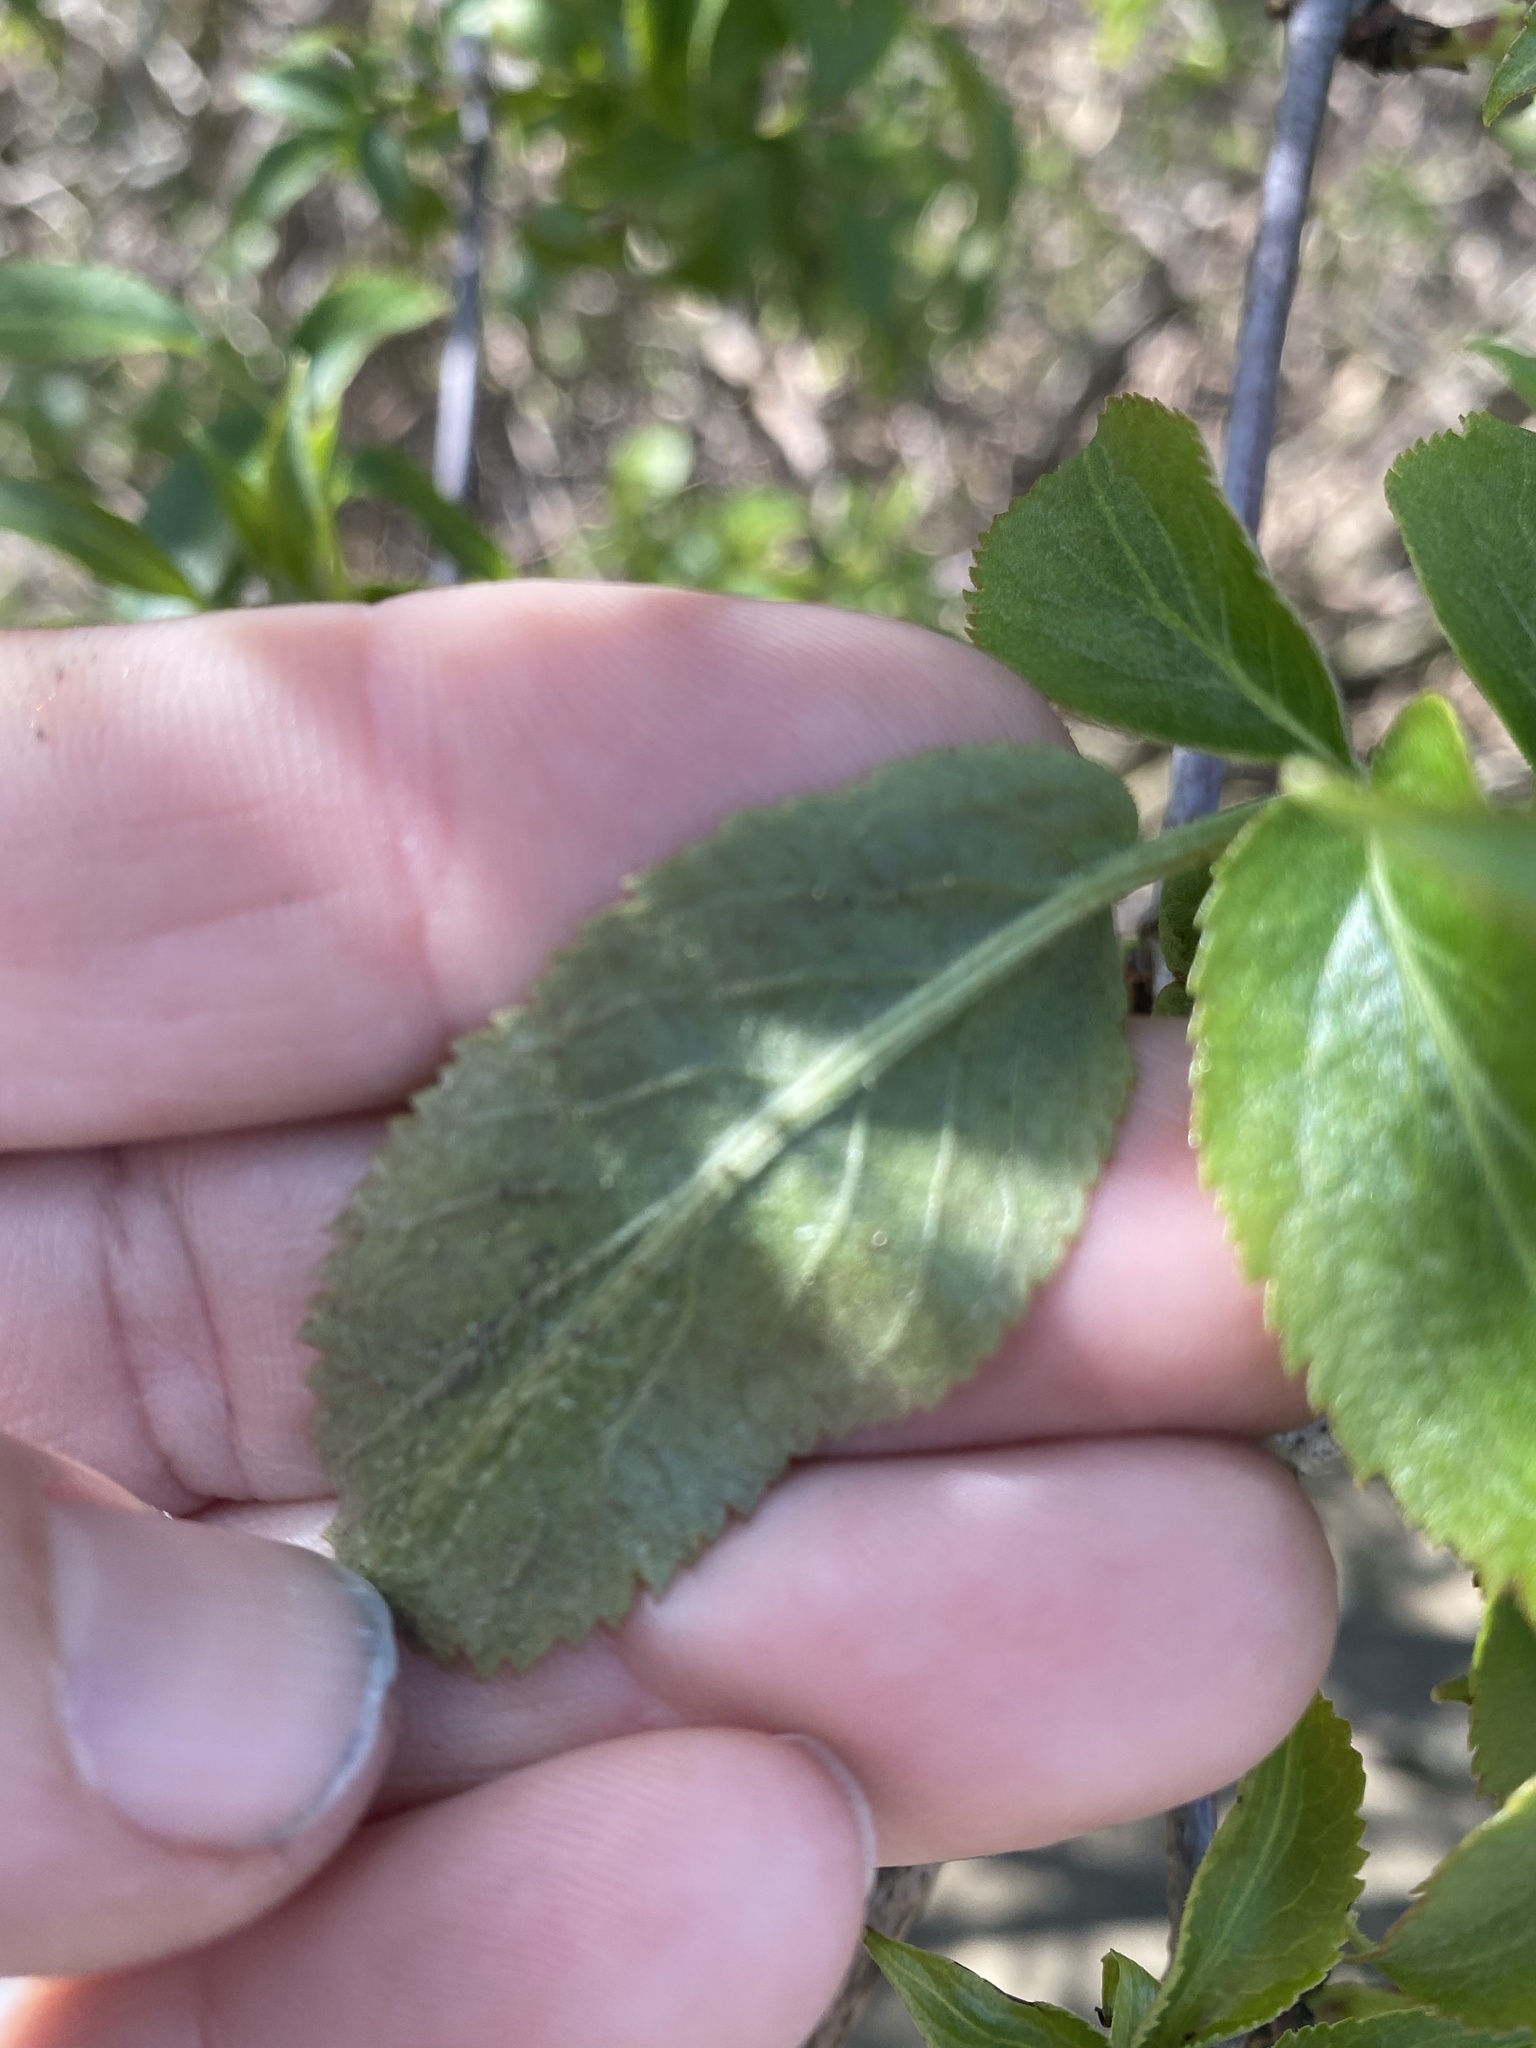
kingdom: Plantae
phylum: Tracheophyta
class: Magnoliopsida
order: Dipsacales
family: Viburnaceae
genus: Sambucus
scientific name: Sambucus cerulea
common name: Blue elder
